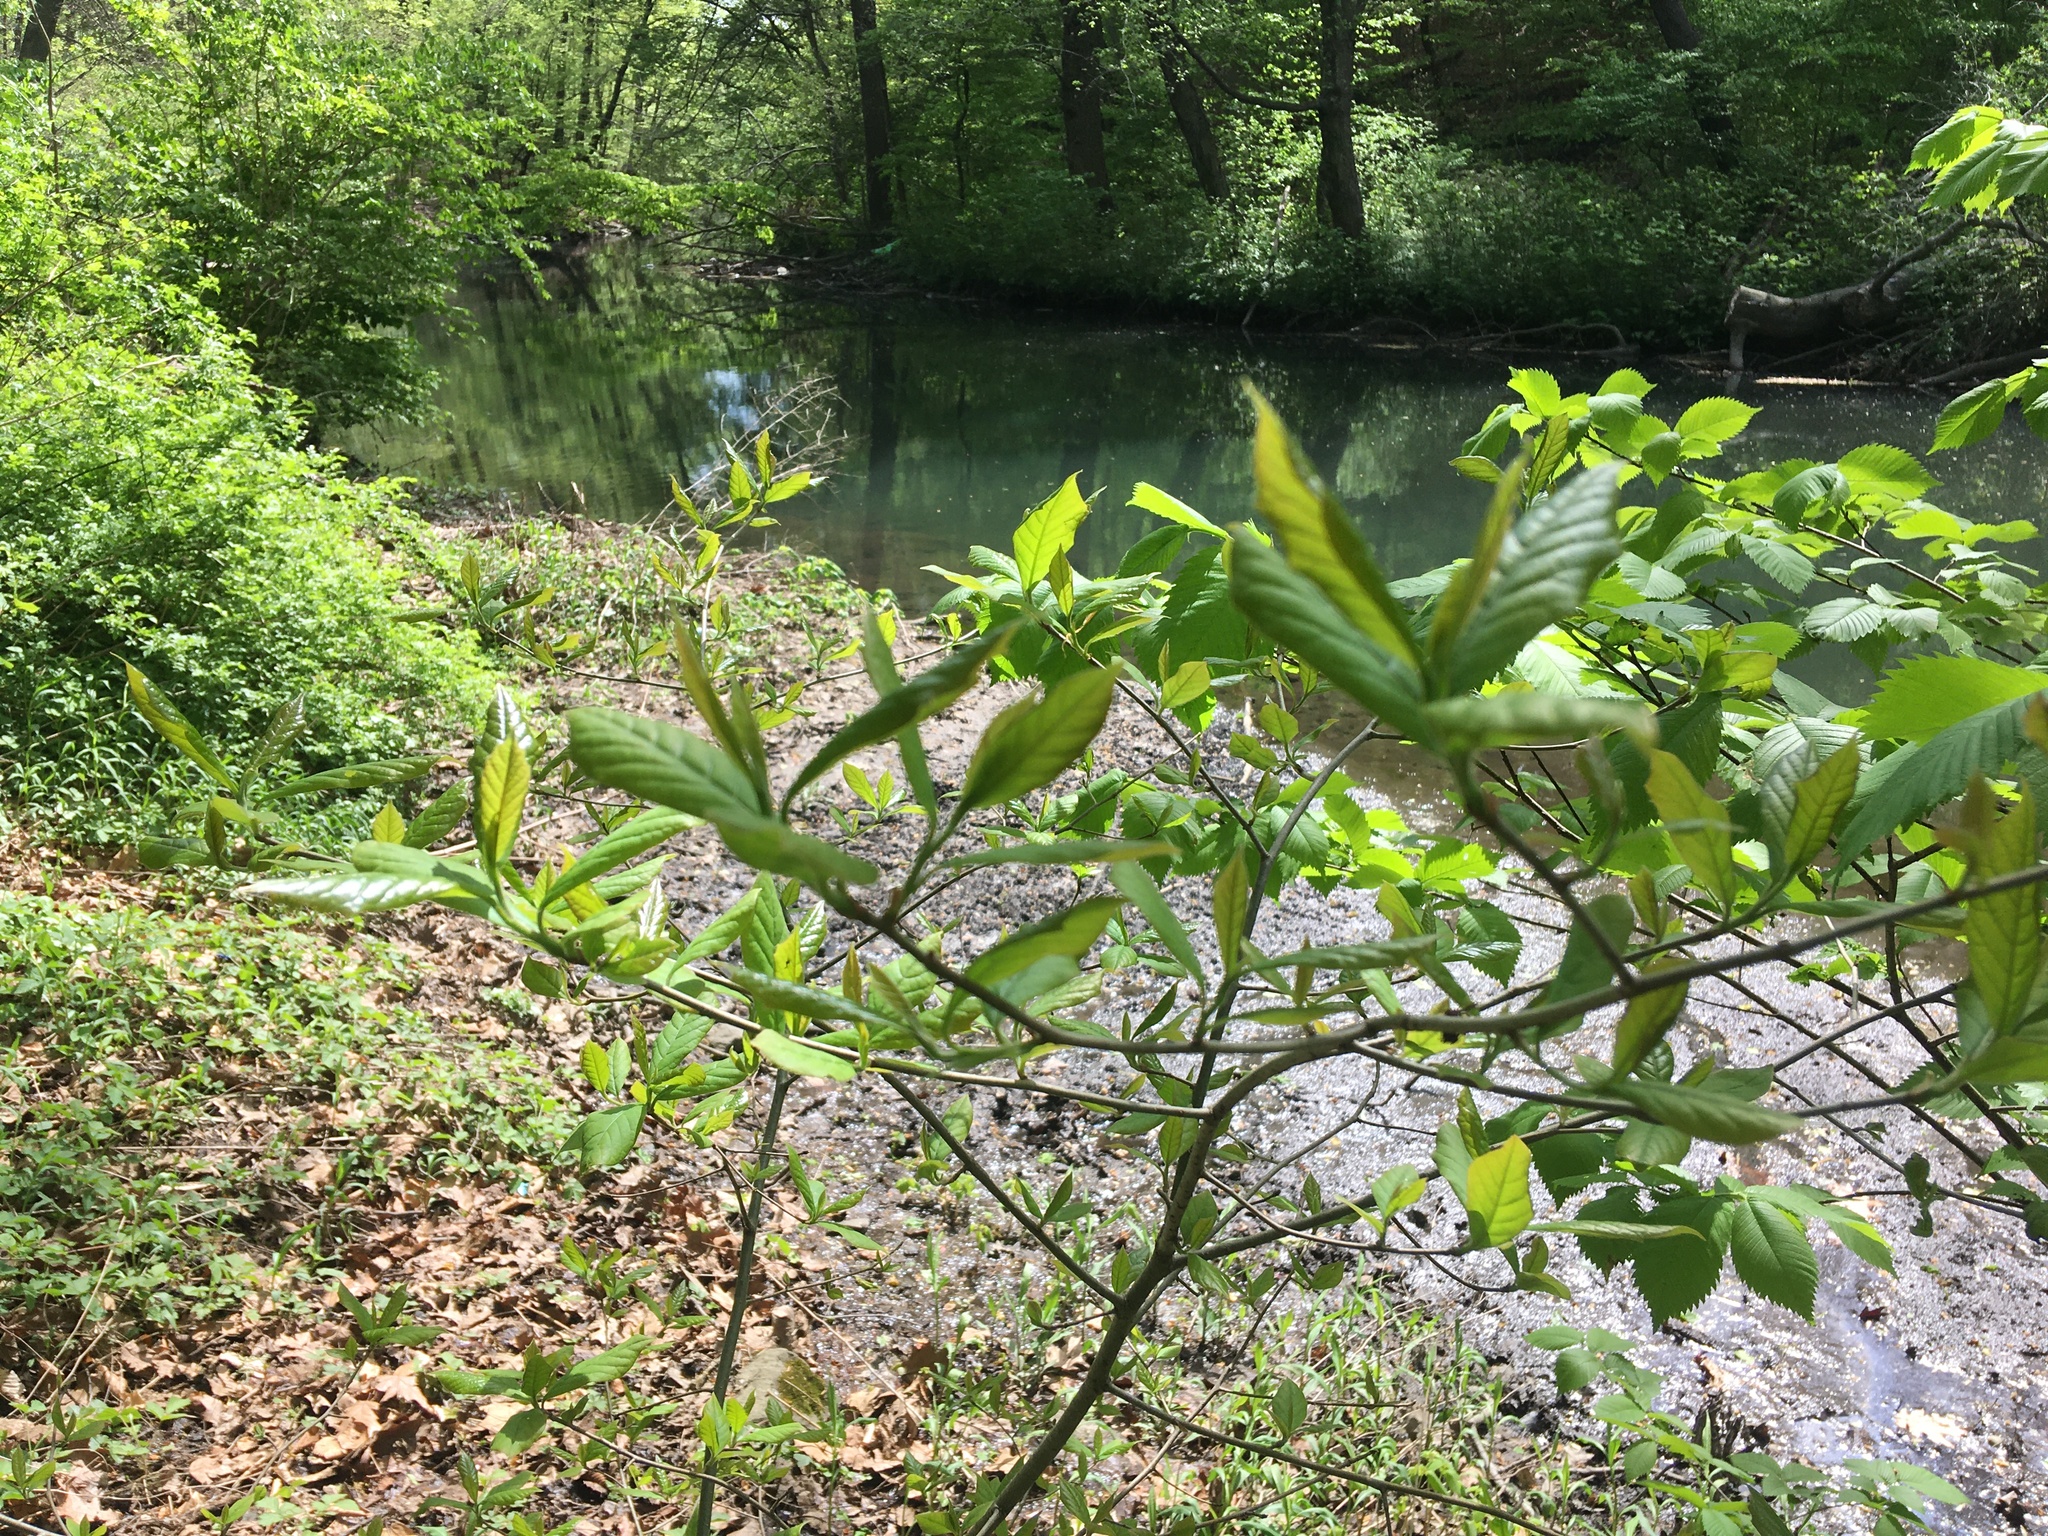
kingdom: Plantae
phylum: Tracheophyta
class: Magnoliopsida
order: Cornales
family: Nyssaceae
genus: Nyssa
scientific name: Nyssa sylvatica
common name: Black tupelo
